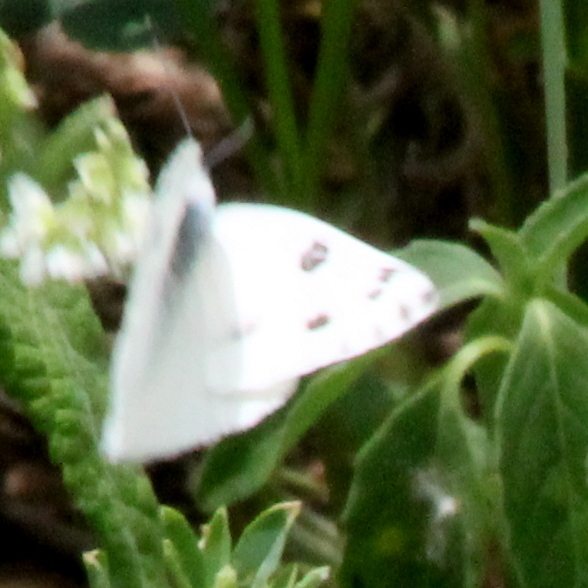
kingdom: Animalia
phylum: Arthropoda
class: Insecta
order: Lepidoptera
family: Pieridae
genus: Pontia
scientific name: Pontia protodice
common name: Checkered white
